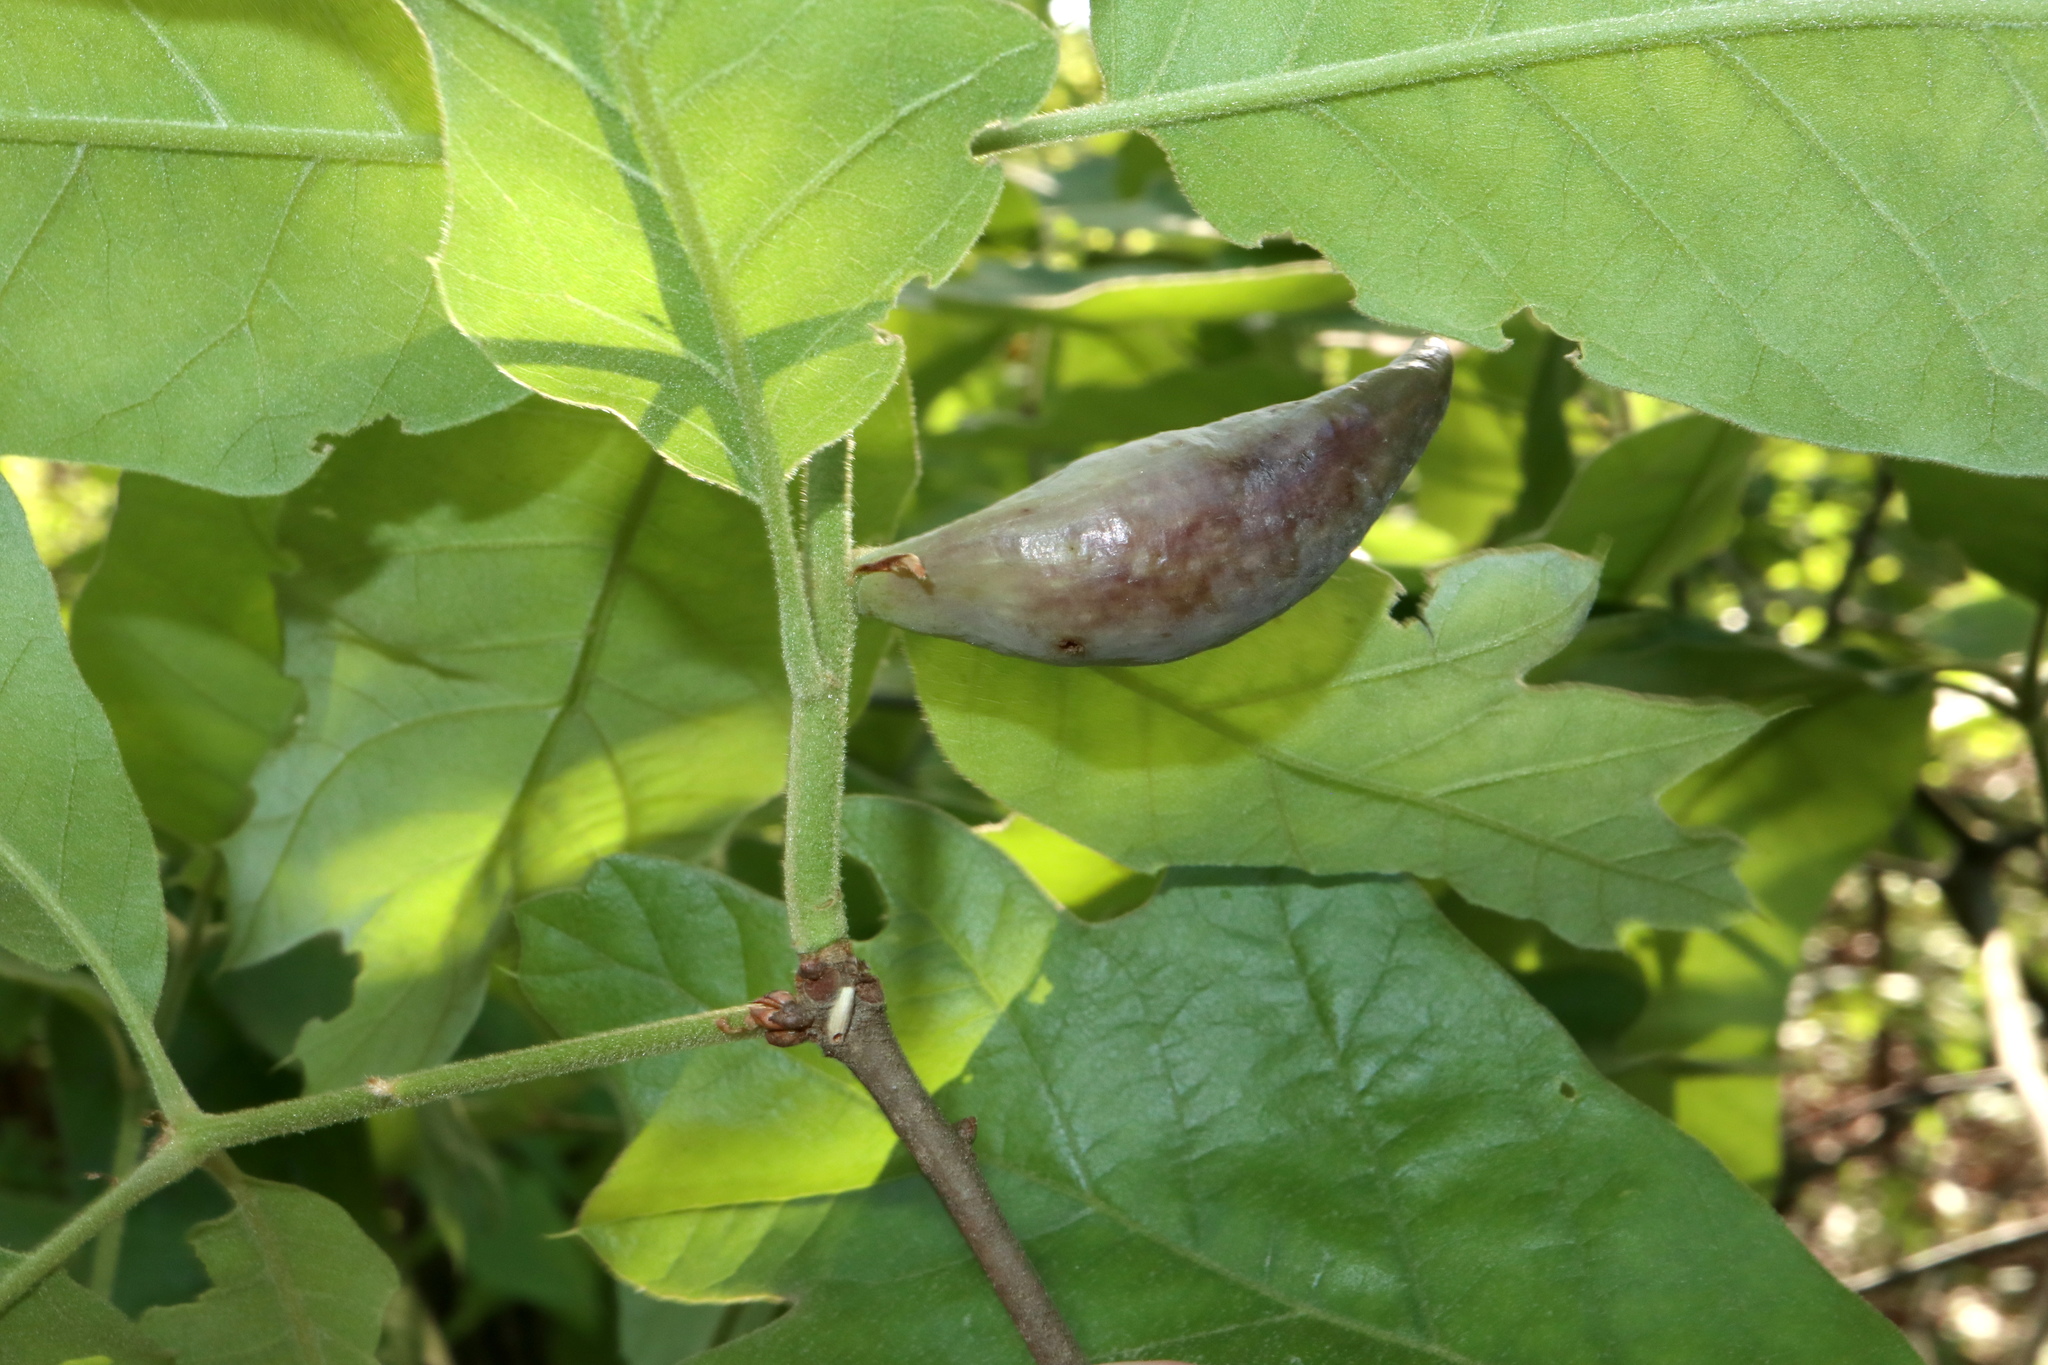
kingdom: Animalia
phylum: Arthropoda
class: Insecta
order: Hymenoptera
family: Cynipidae
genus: Amphibolips
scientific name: Amphibolips
